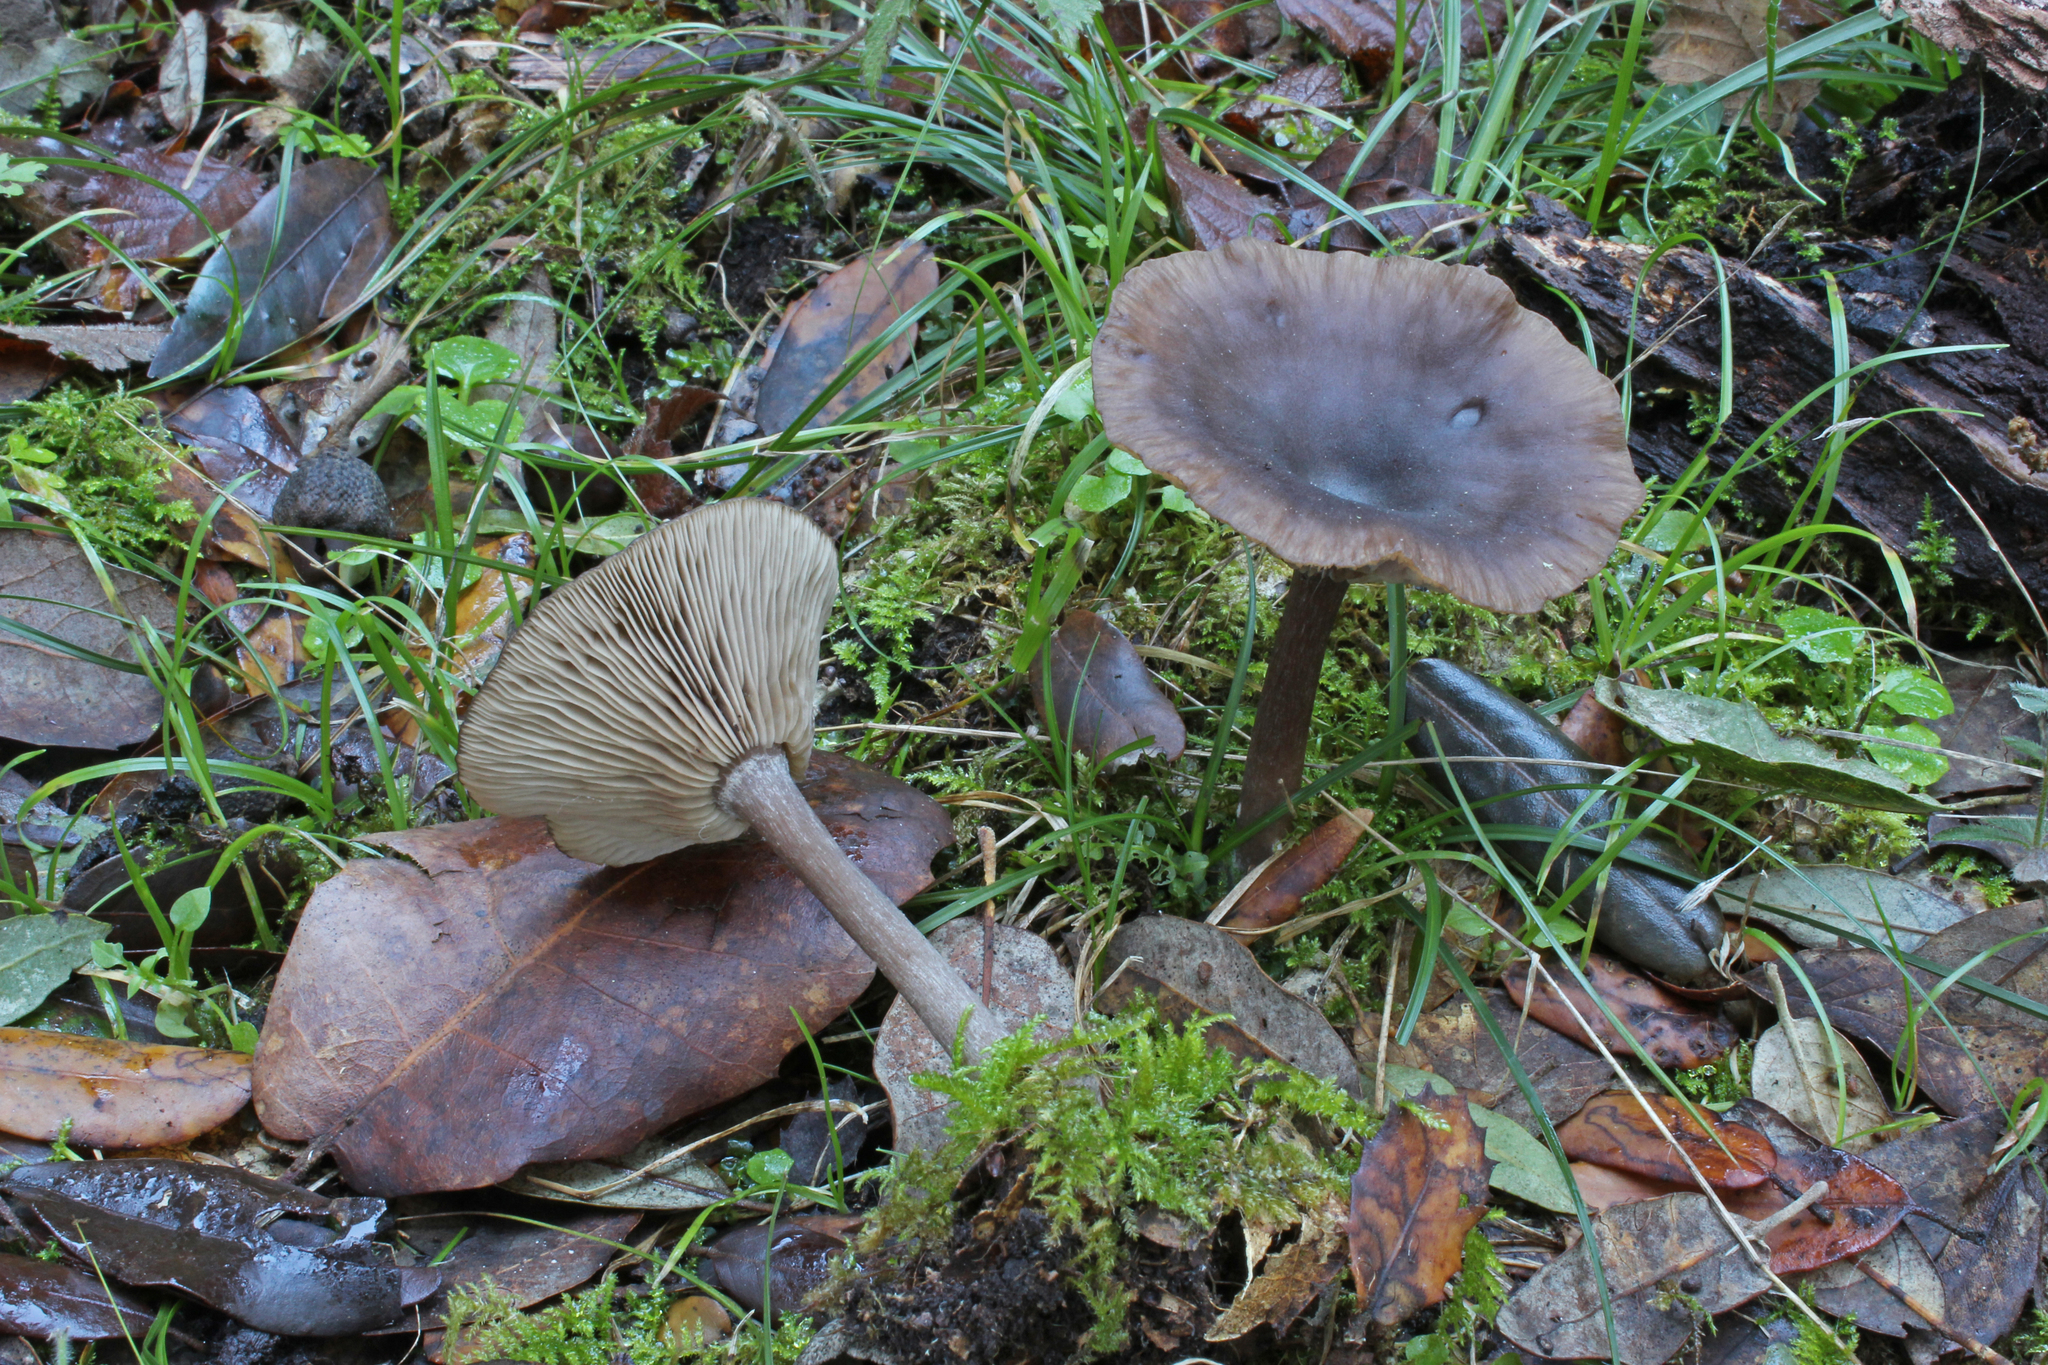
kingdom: Fungi
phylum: Basidiomycota
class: Agaricomycetes
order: Agaricales
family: Pseudoclitocybaceae
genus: Pseudoclitocybe
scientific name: Pseudoclitocybe cyathiformis
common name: Goblet
